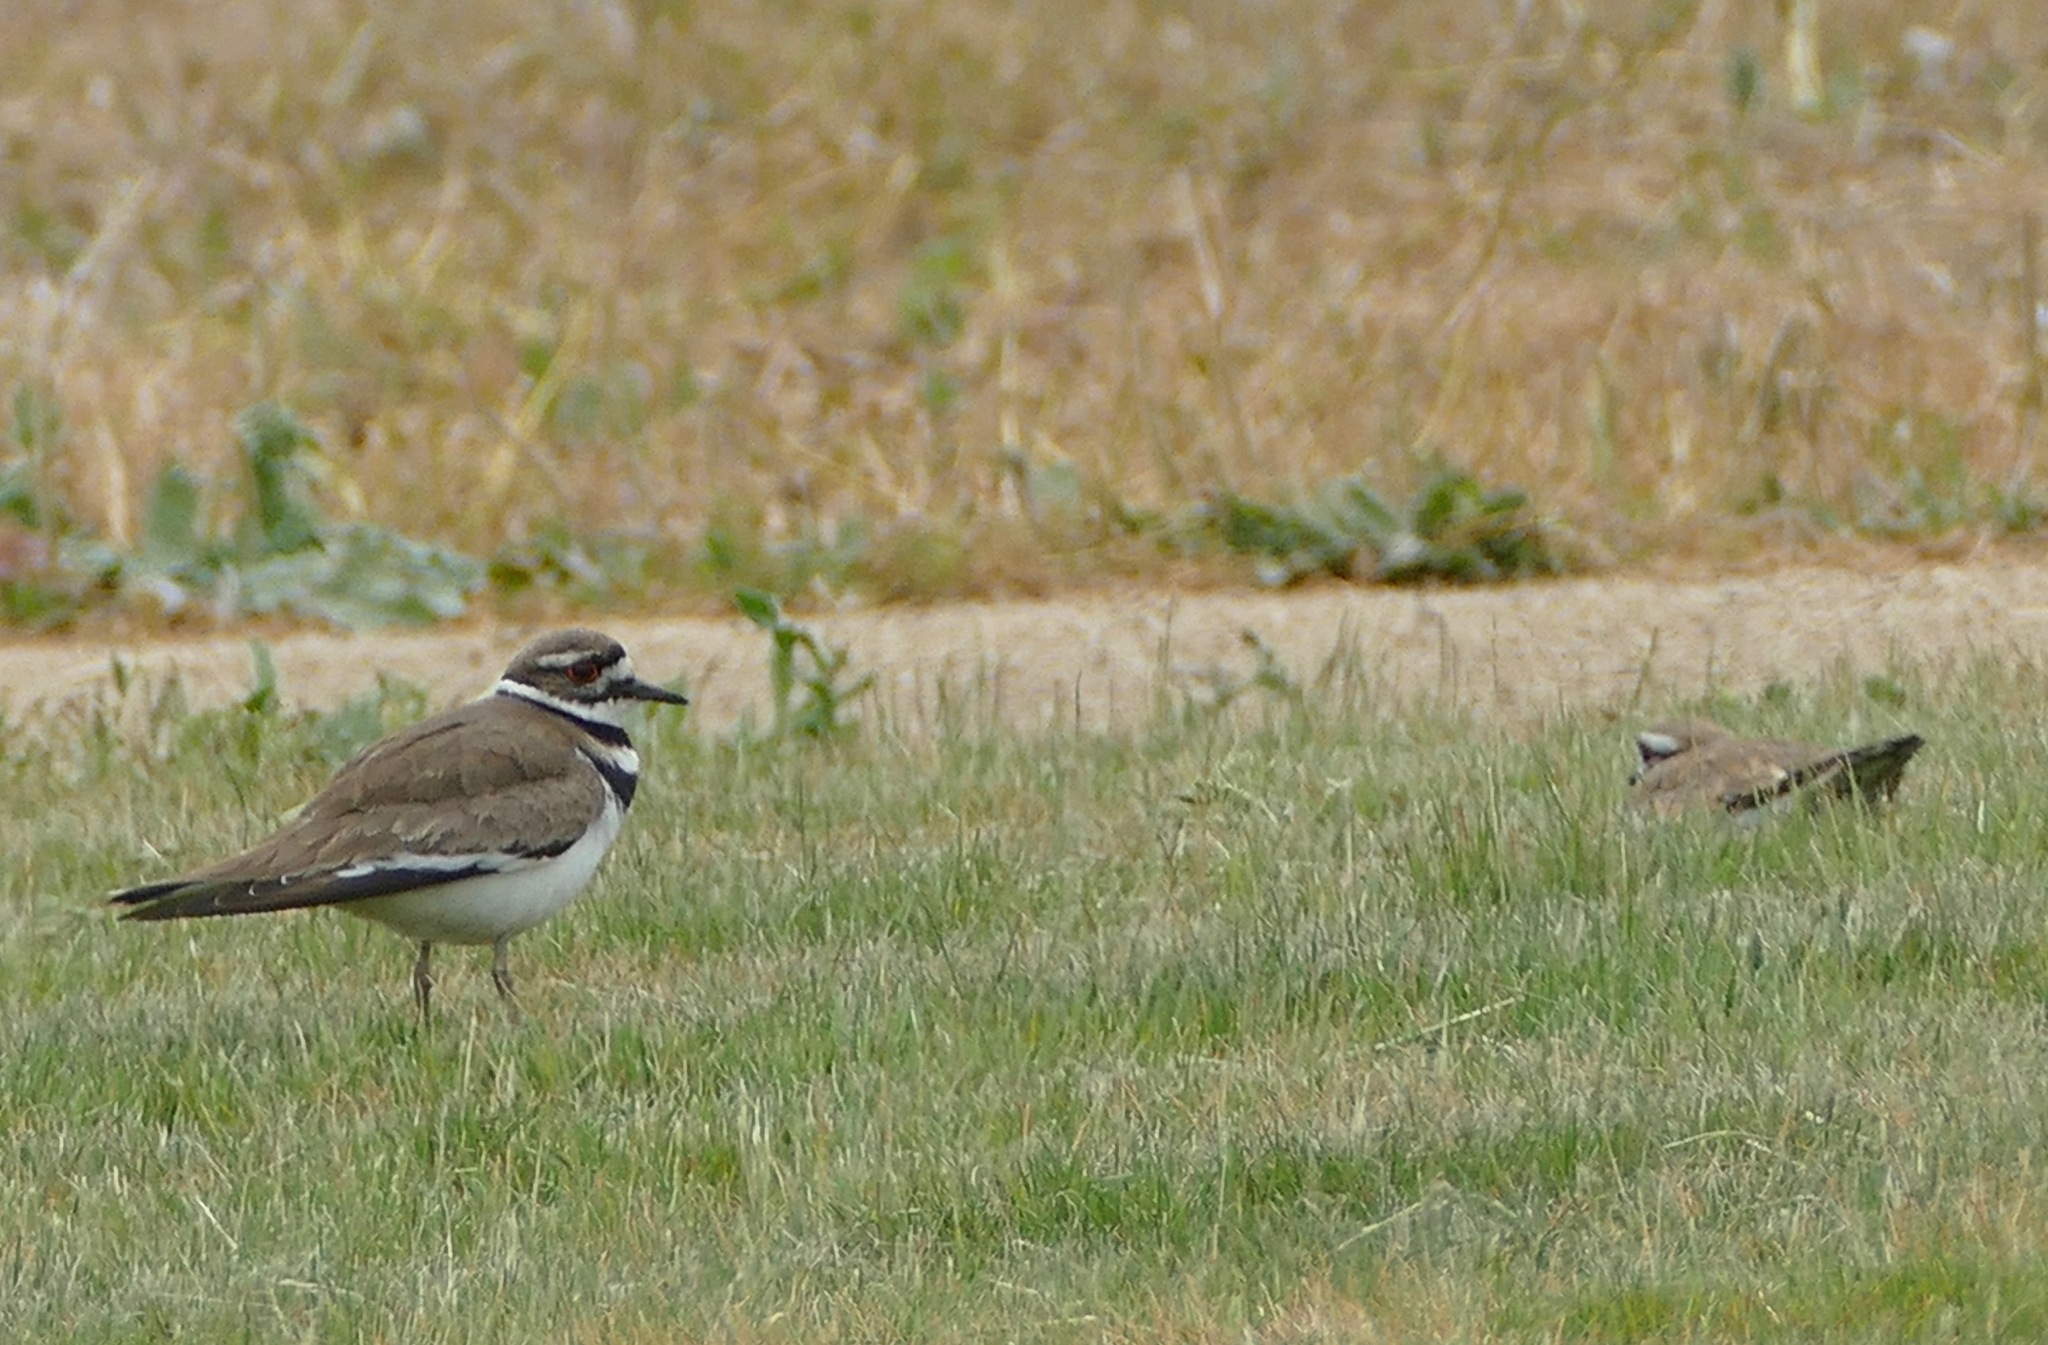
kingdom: Animalia
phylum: Chordata
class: Aves
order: Charadriiformes
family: Charadriidae
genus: Charadrius
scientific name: Charadrius vociferus
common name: Killdeer
